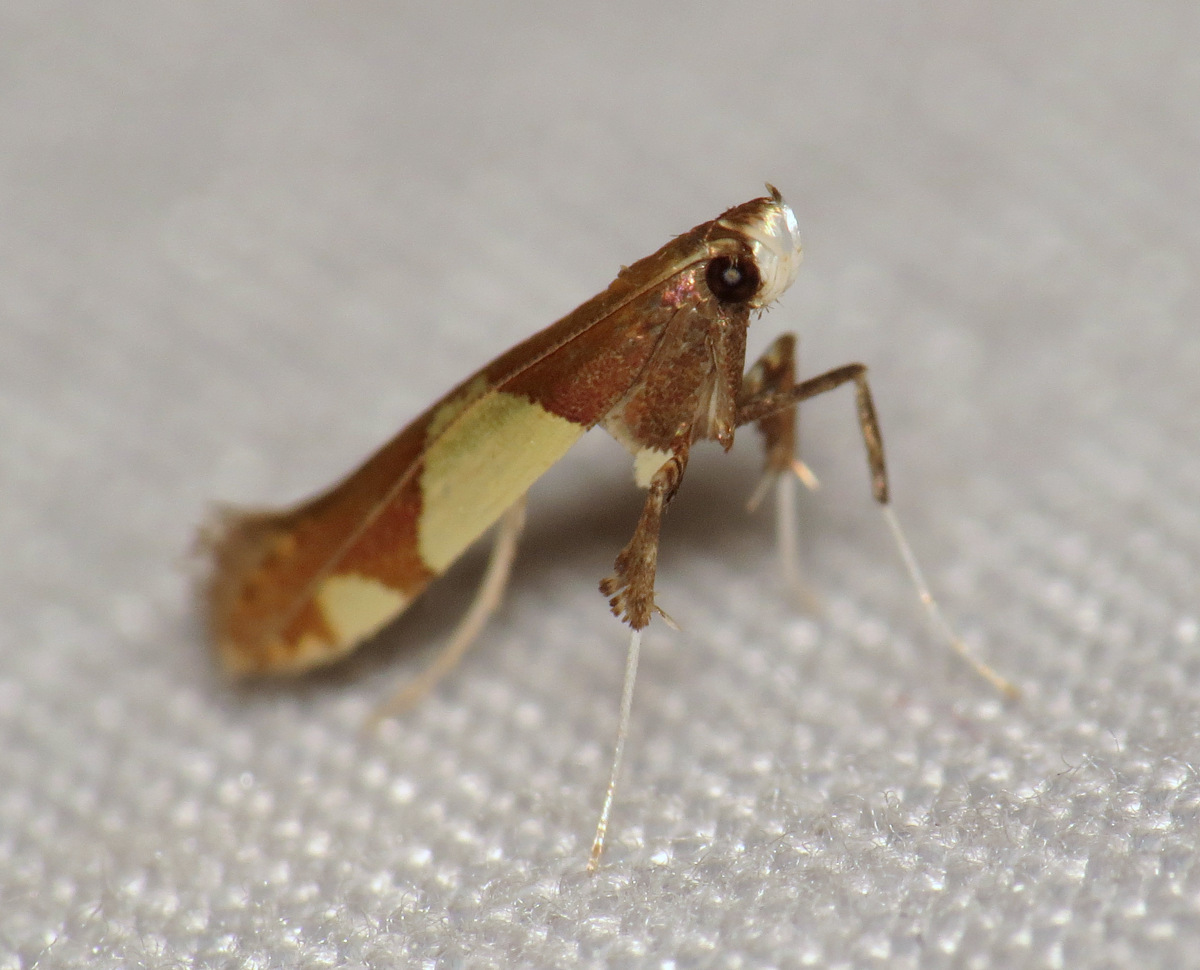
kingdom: Animalia
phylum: Arthropoda
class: Insecta
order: Lepidoptera
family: Gracillariidae
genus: Caloptilia
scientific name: Caloptilia bimaculatella
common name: Maple caloptilia moth
